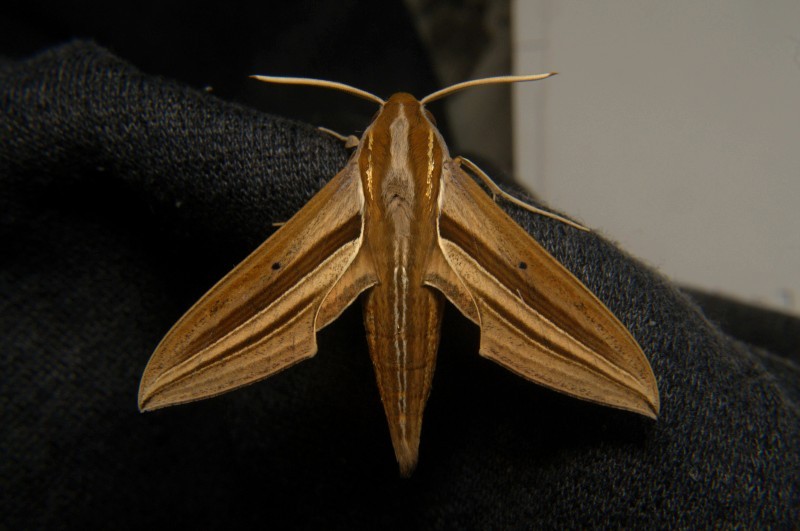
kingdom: Animalia
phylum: Arthropoda
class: Insecta
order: Lepidoptera
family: Sphingidae
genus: Theretra
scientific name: Theretra oldenlandiae
